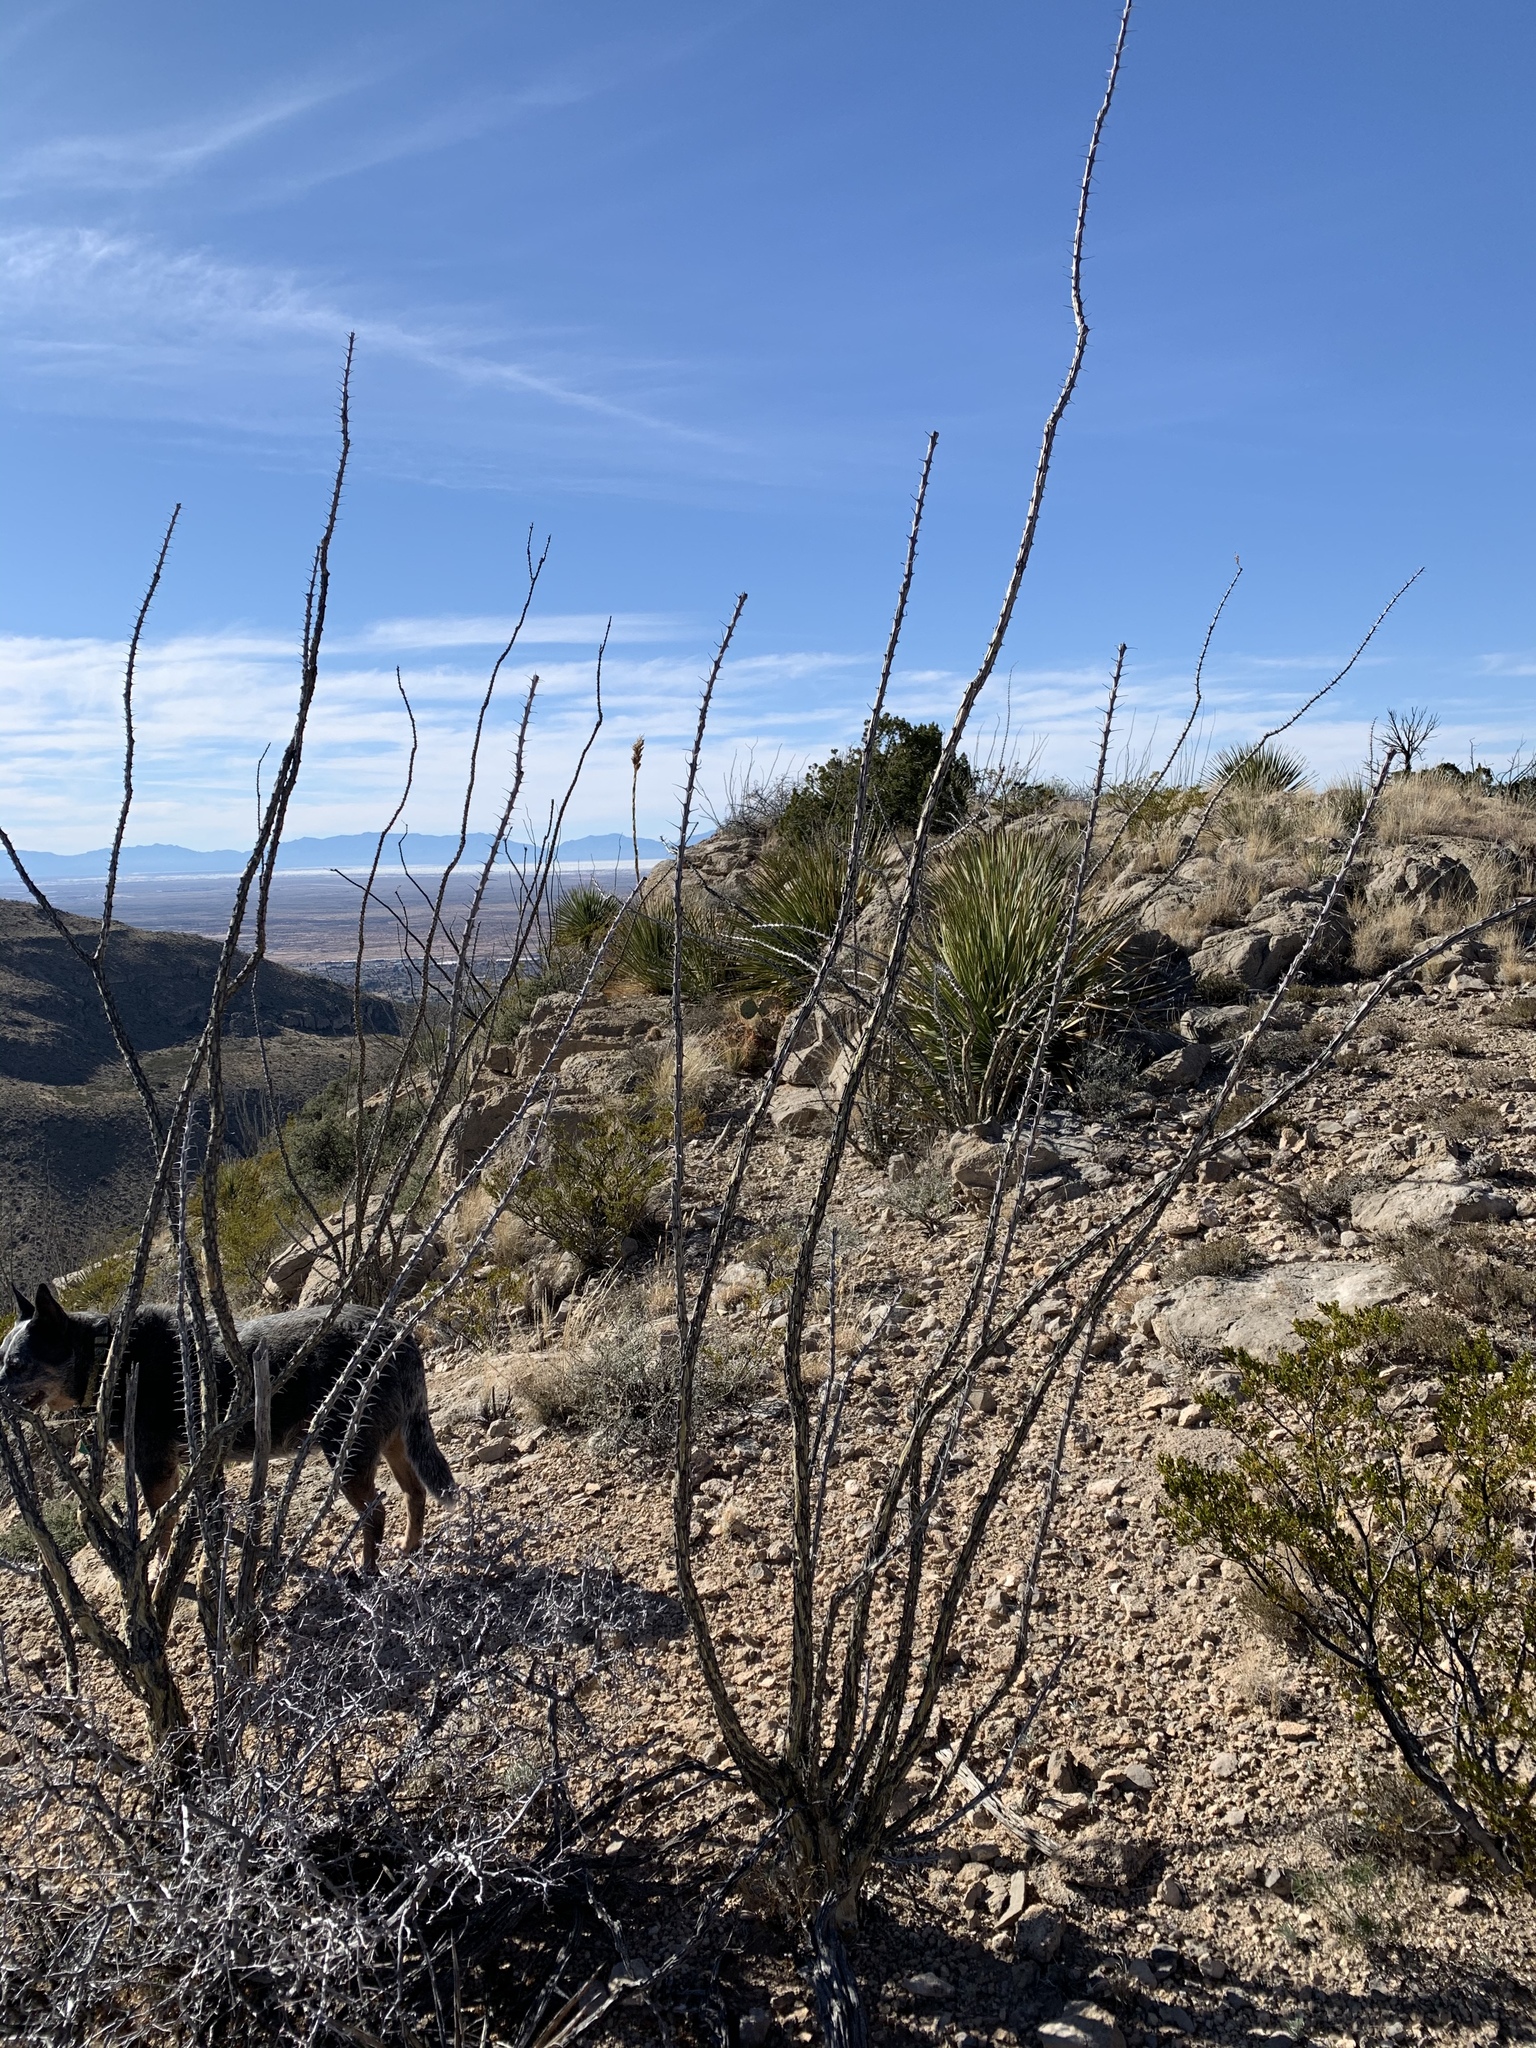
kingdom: Plantae
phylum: Tracheophyta
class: Magnoliopsida
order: Ericales
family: Fouquieriaceae
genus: Fouquieria
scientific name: Fouquieria splendens
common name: Vine-cactus
